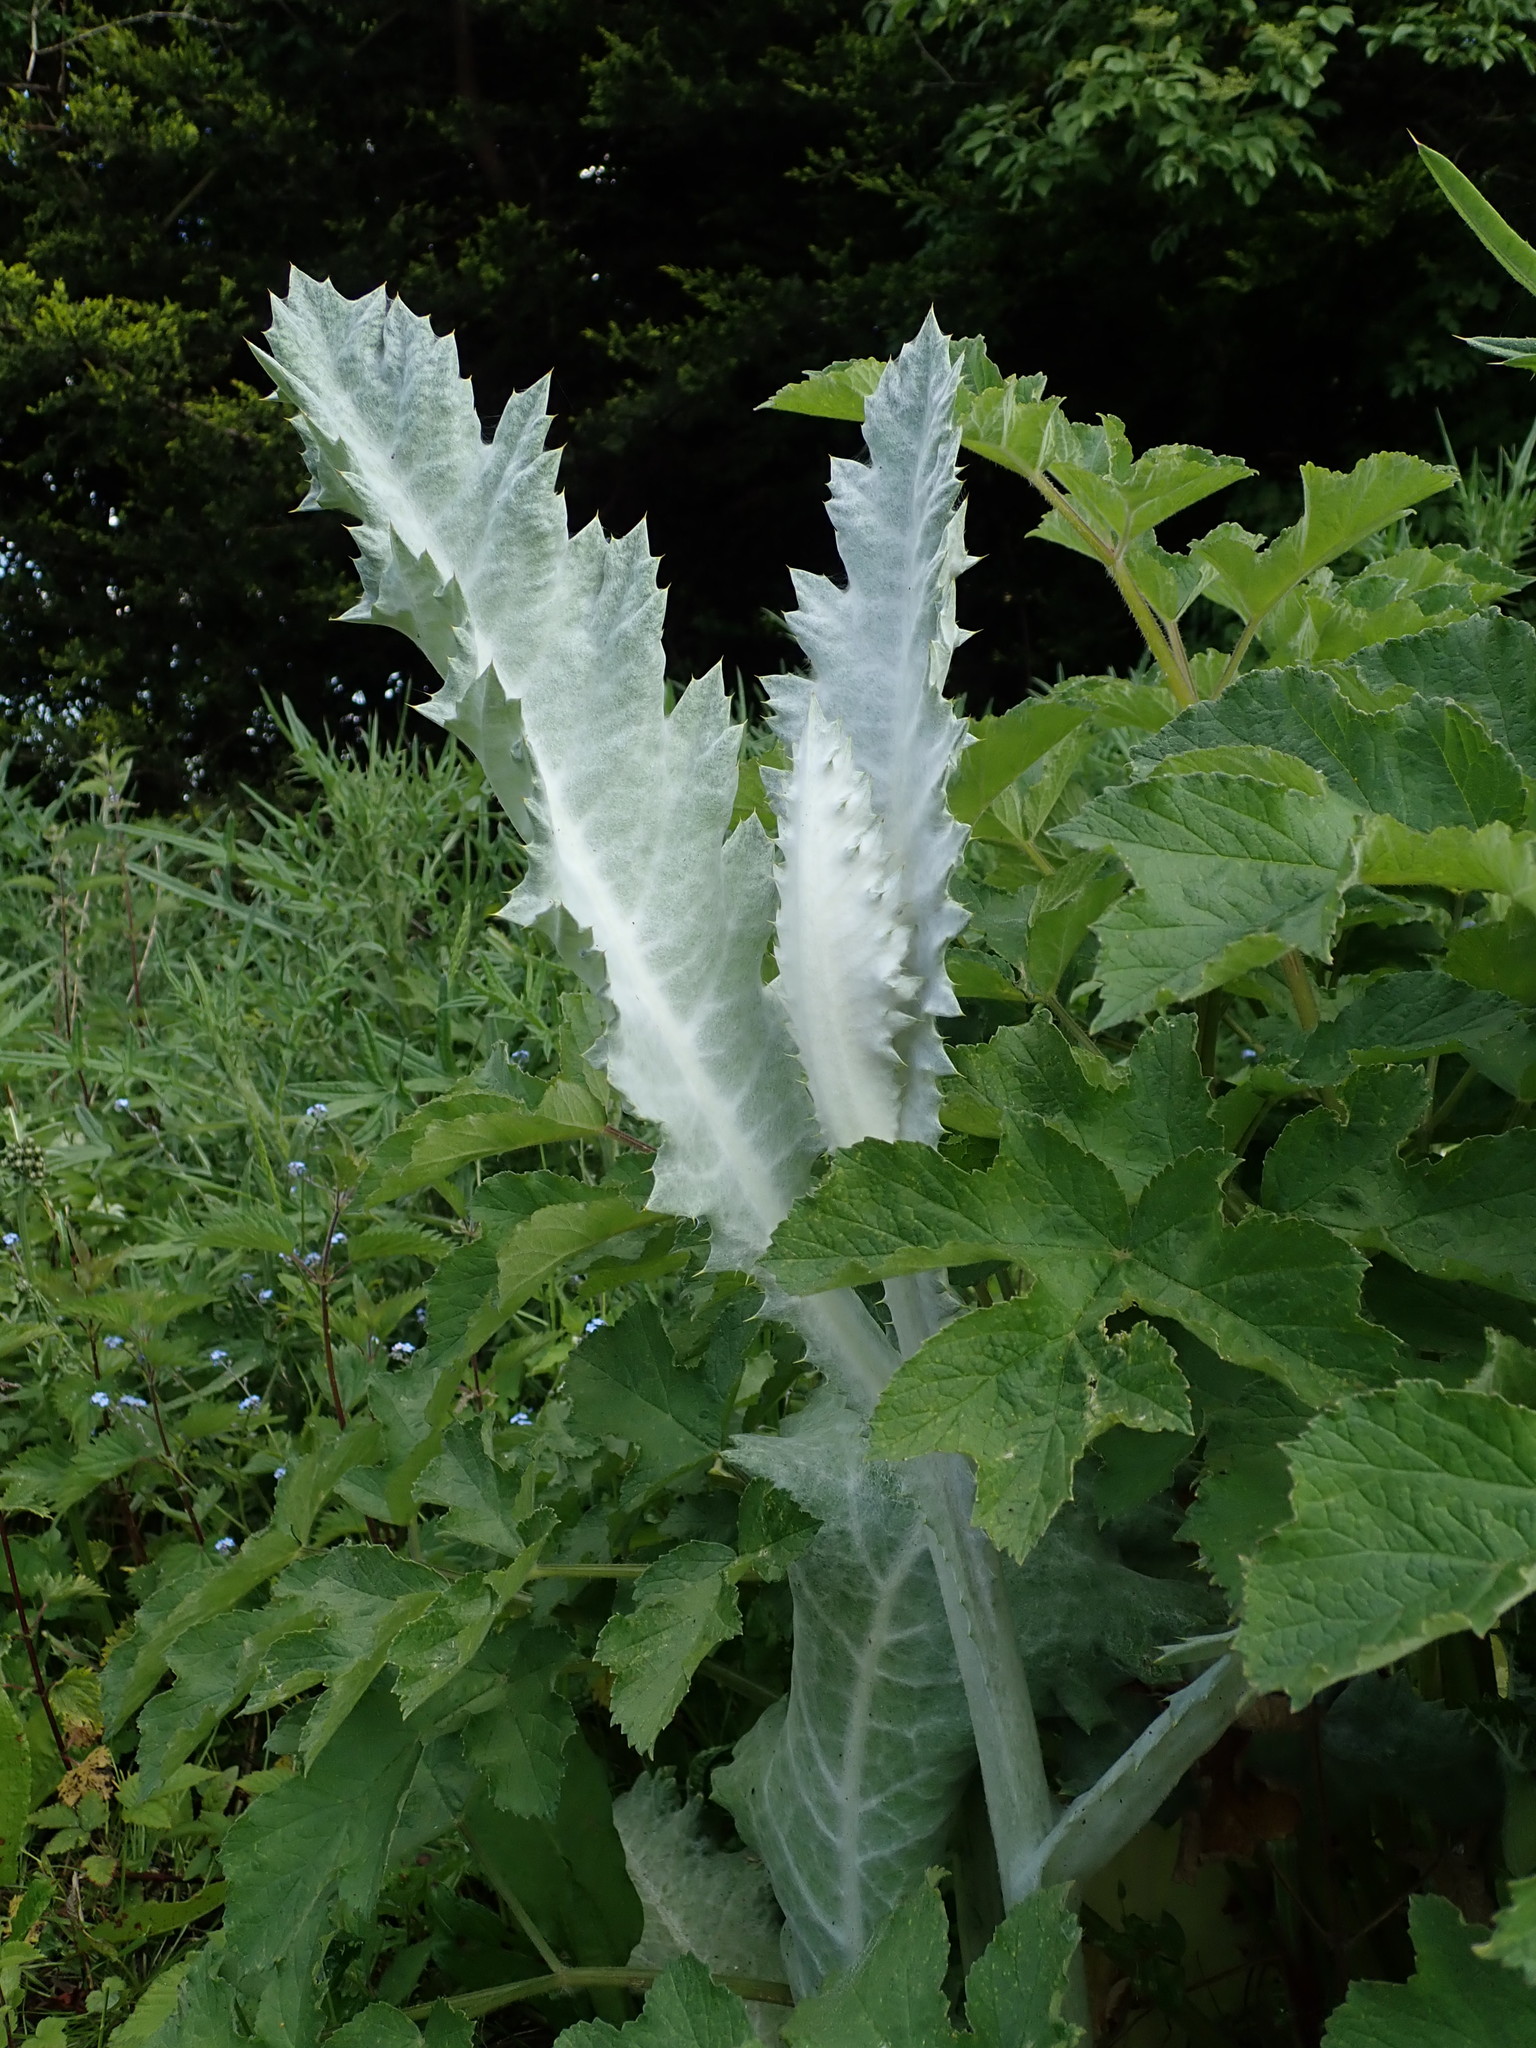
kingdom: Plantae
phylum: Tracheophyta
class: Magnoliopsida
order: Asterales
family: Asteraceae
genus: Onopordum
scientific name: Onopordum acanthium
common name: Scotch thistle
